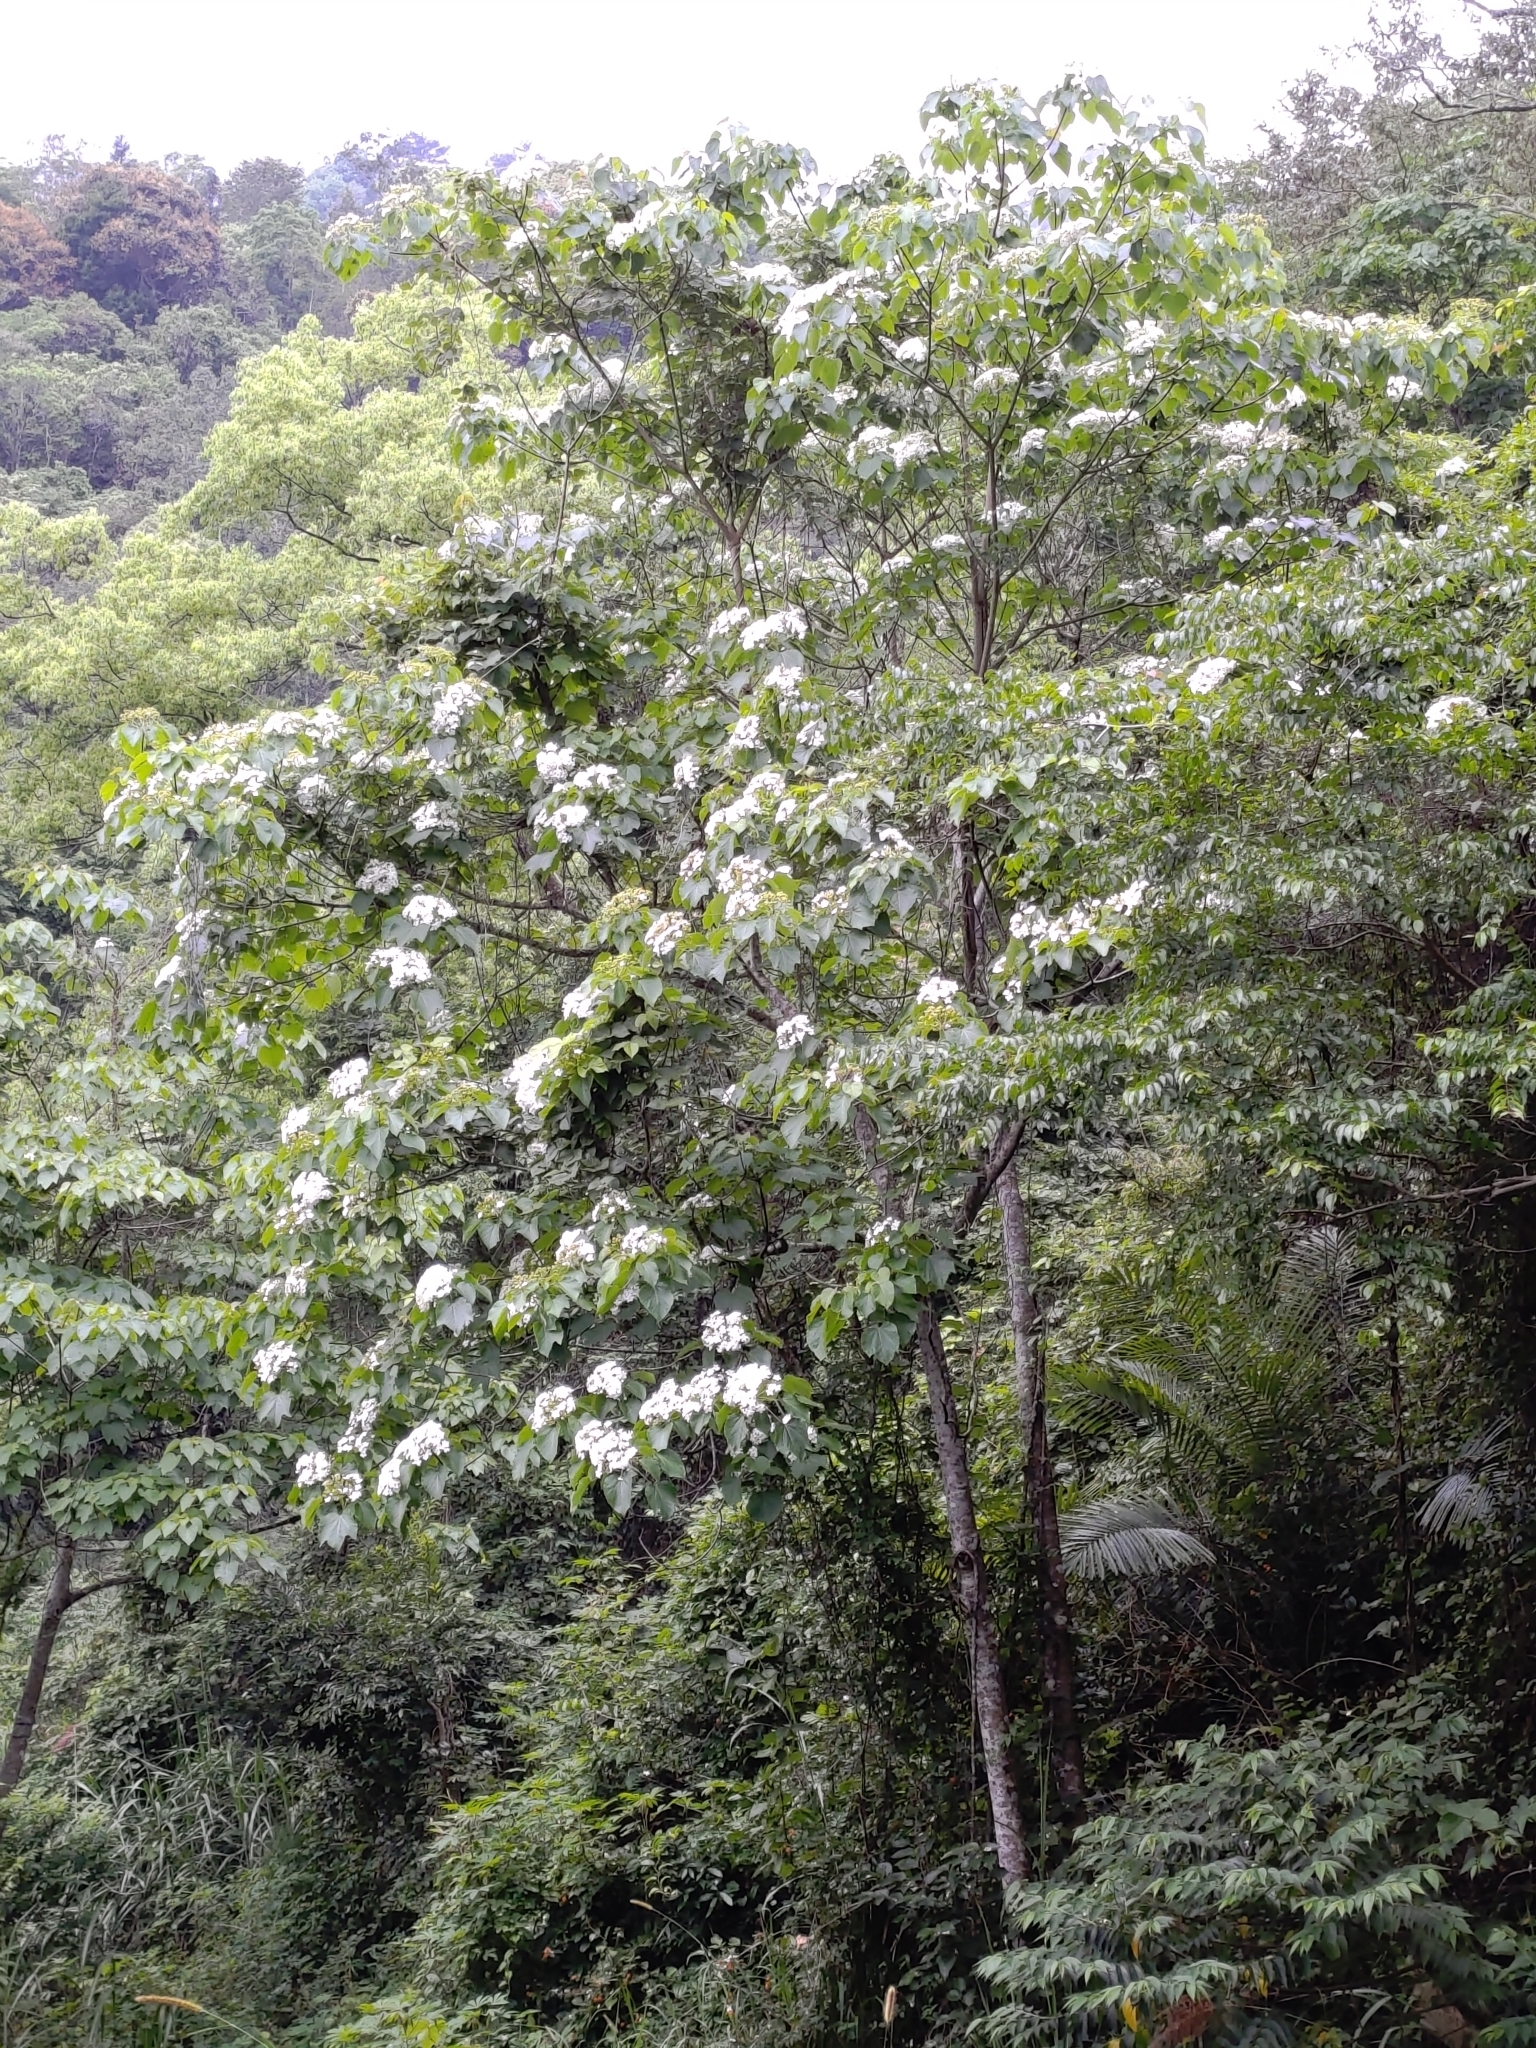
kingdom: Plantae
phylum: Tracheophyta
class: Magnoliopsida
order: Malpighiales
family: Euphorbiaceae
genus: Vernicia
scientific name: Vernicia montana
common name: Mu oil tree
